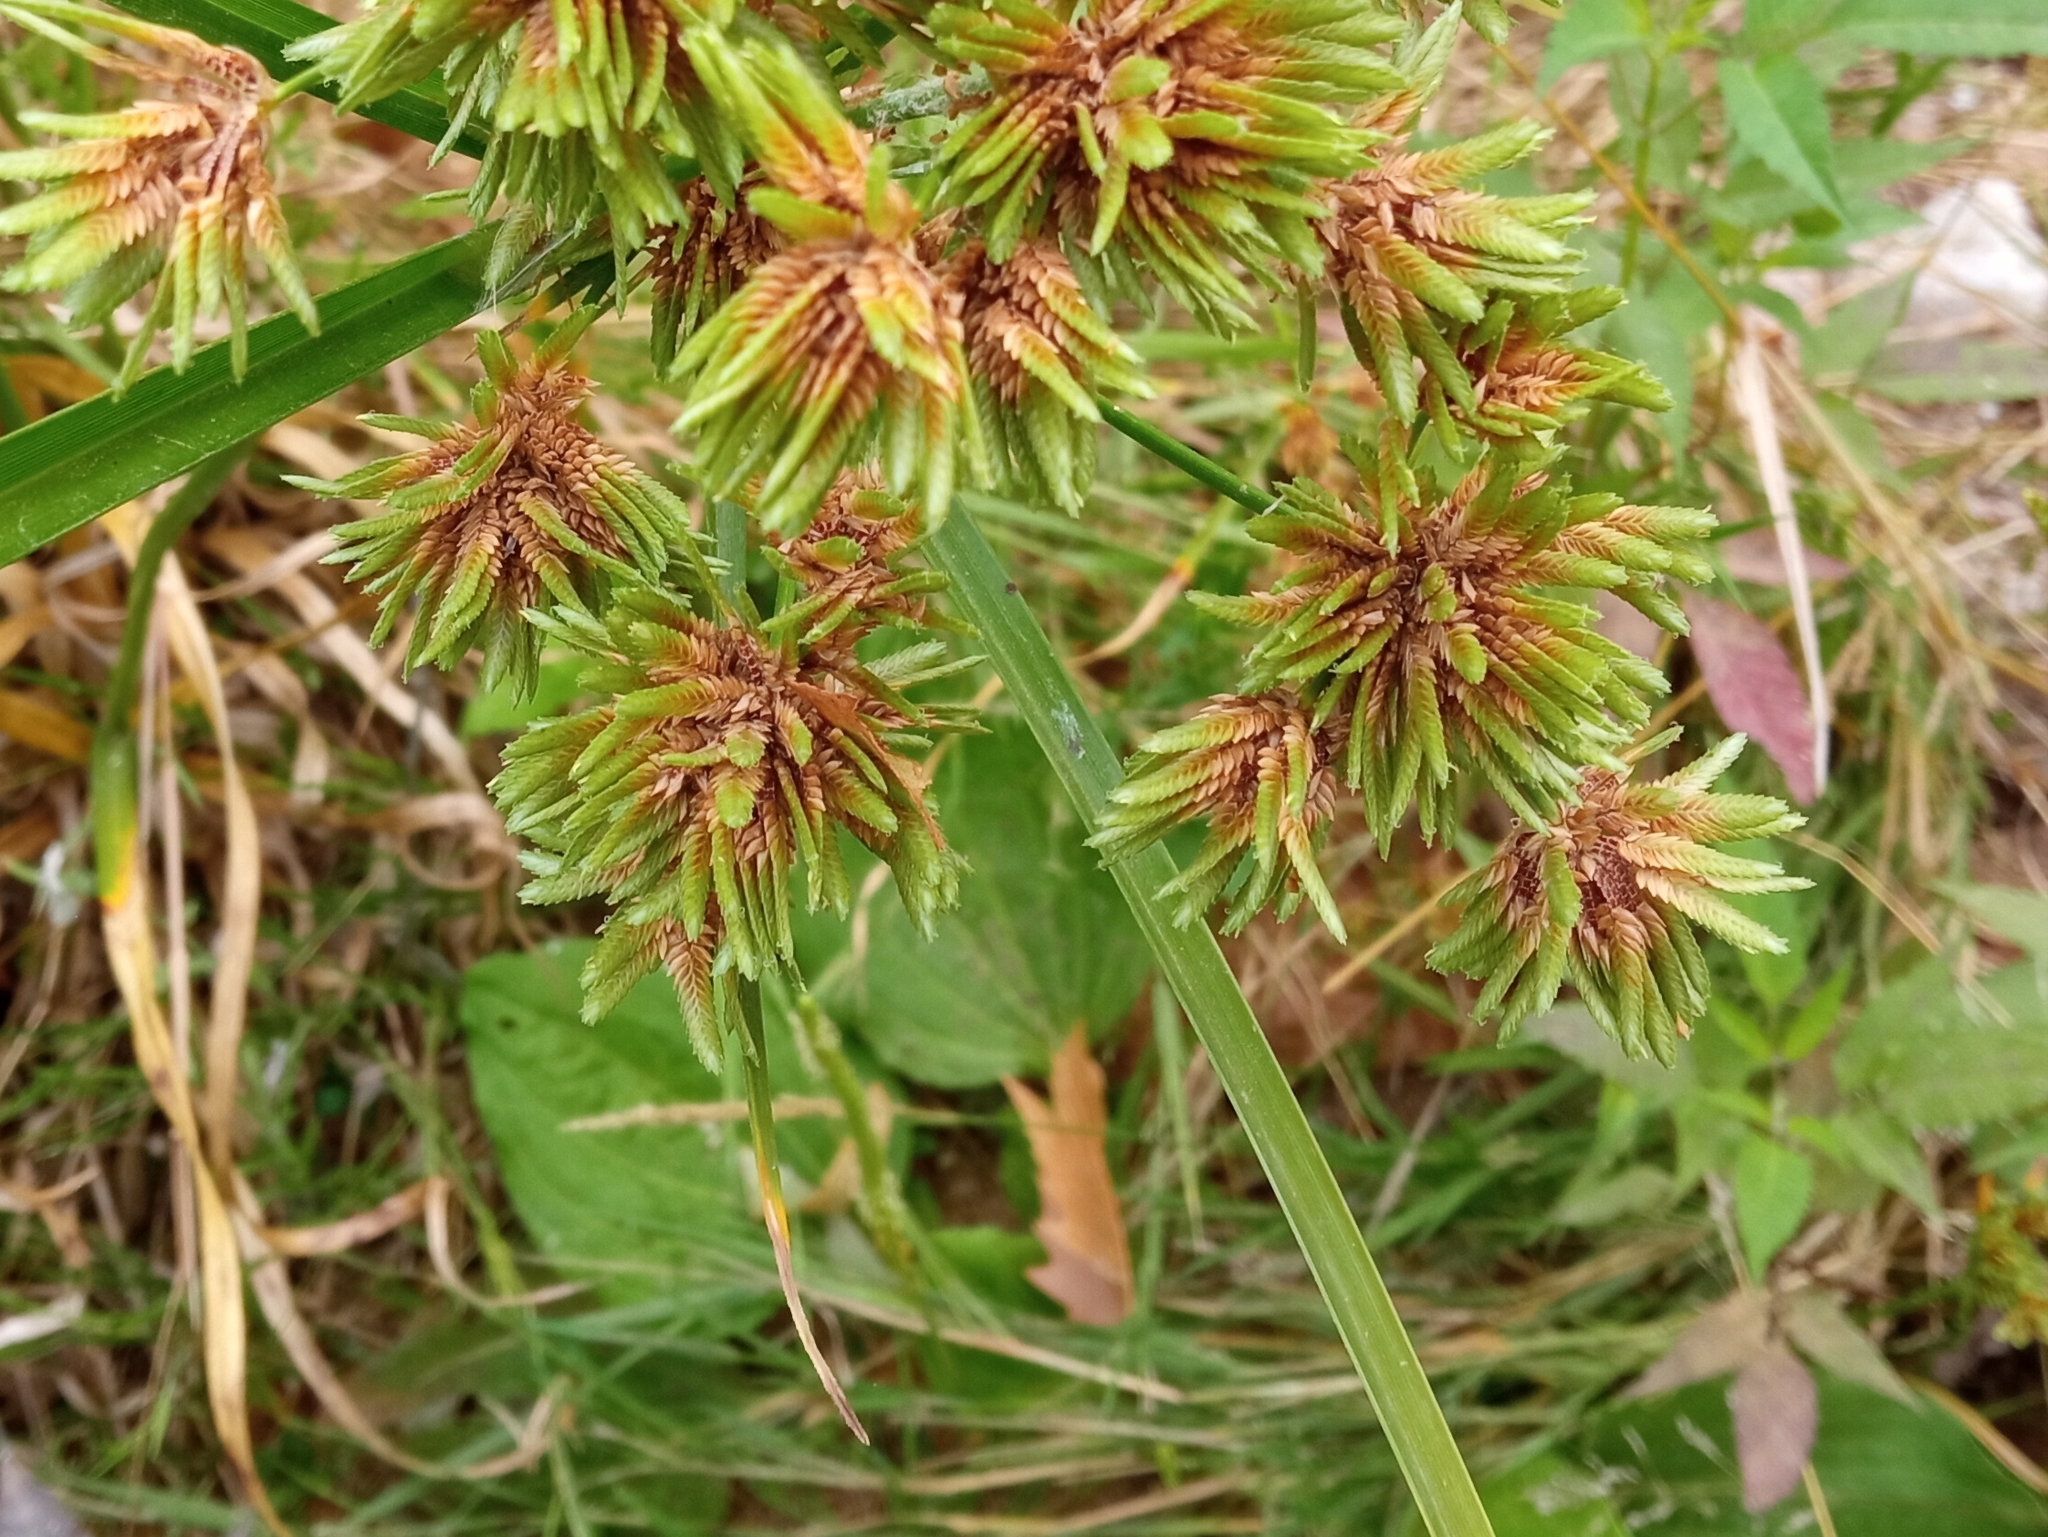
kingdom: Plantae
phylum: Tracheophyta
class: Liliopsida
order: Poales
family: Cyperaceae
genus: Cyperus
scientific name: Cyperus eragrostis
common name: Tall flatsedge
